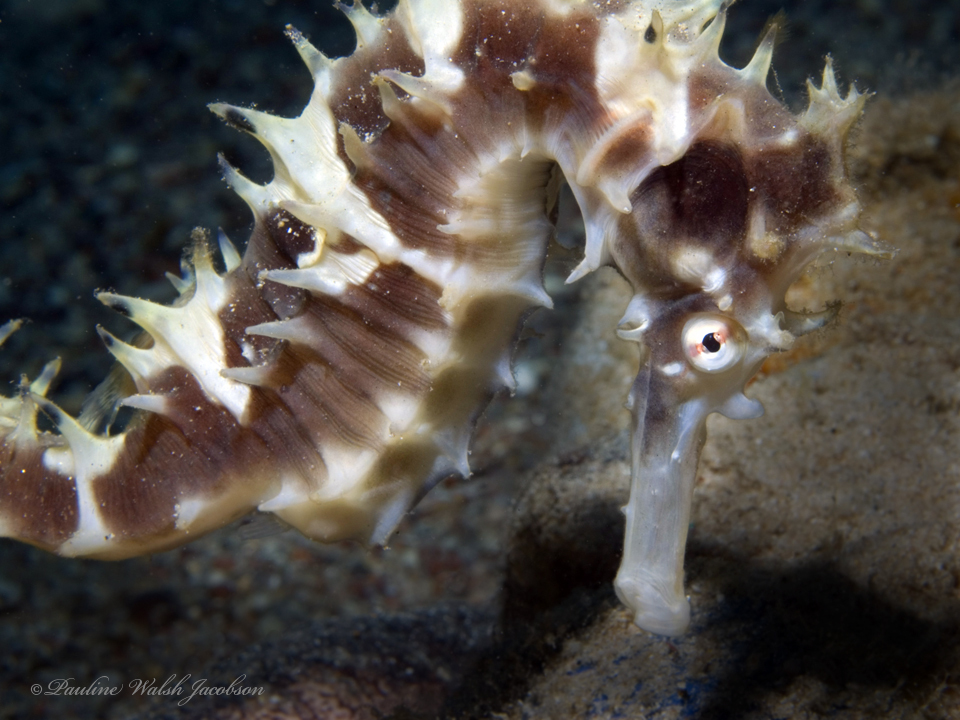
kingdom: Animalia
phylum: Chordata
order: Syngnathiformes
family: Syngnathidae
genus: Hippocampus
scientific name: Hippocampus jayakari
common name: Jayakar's seahorse
